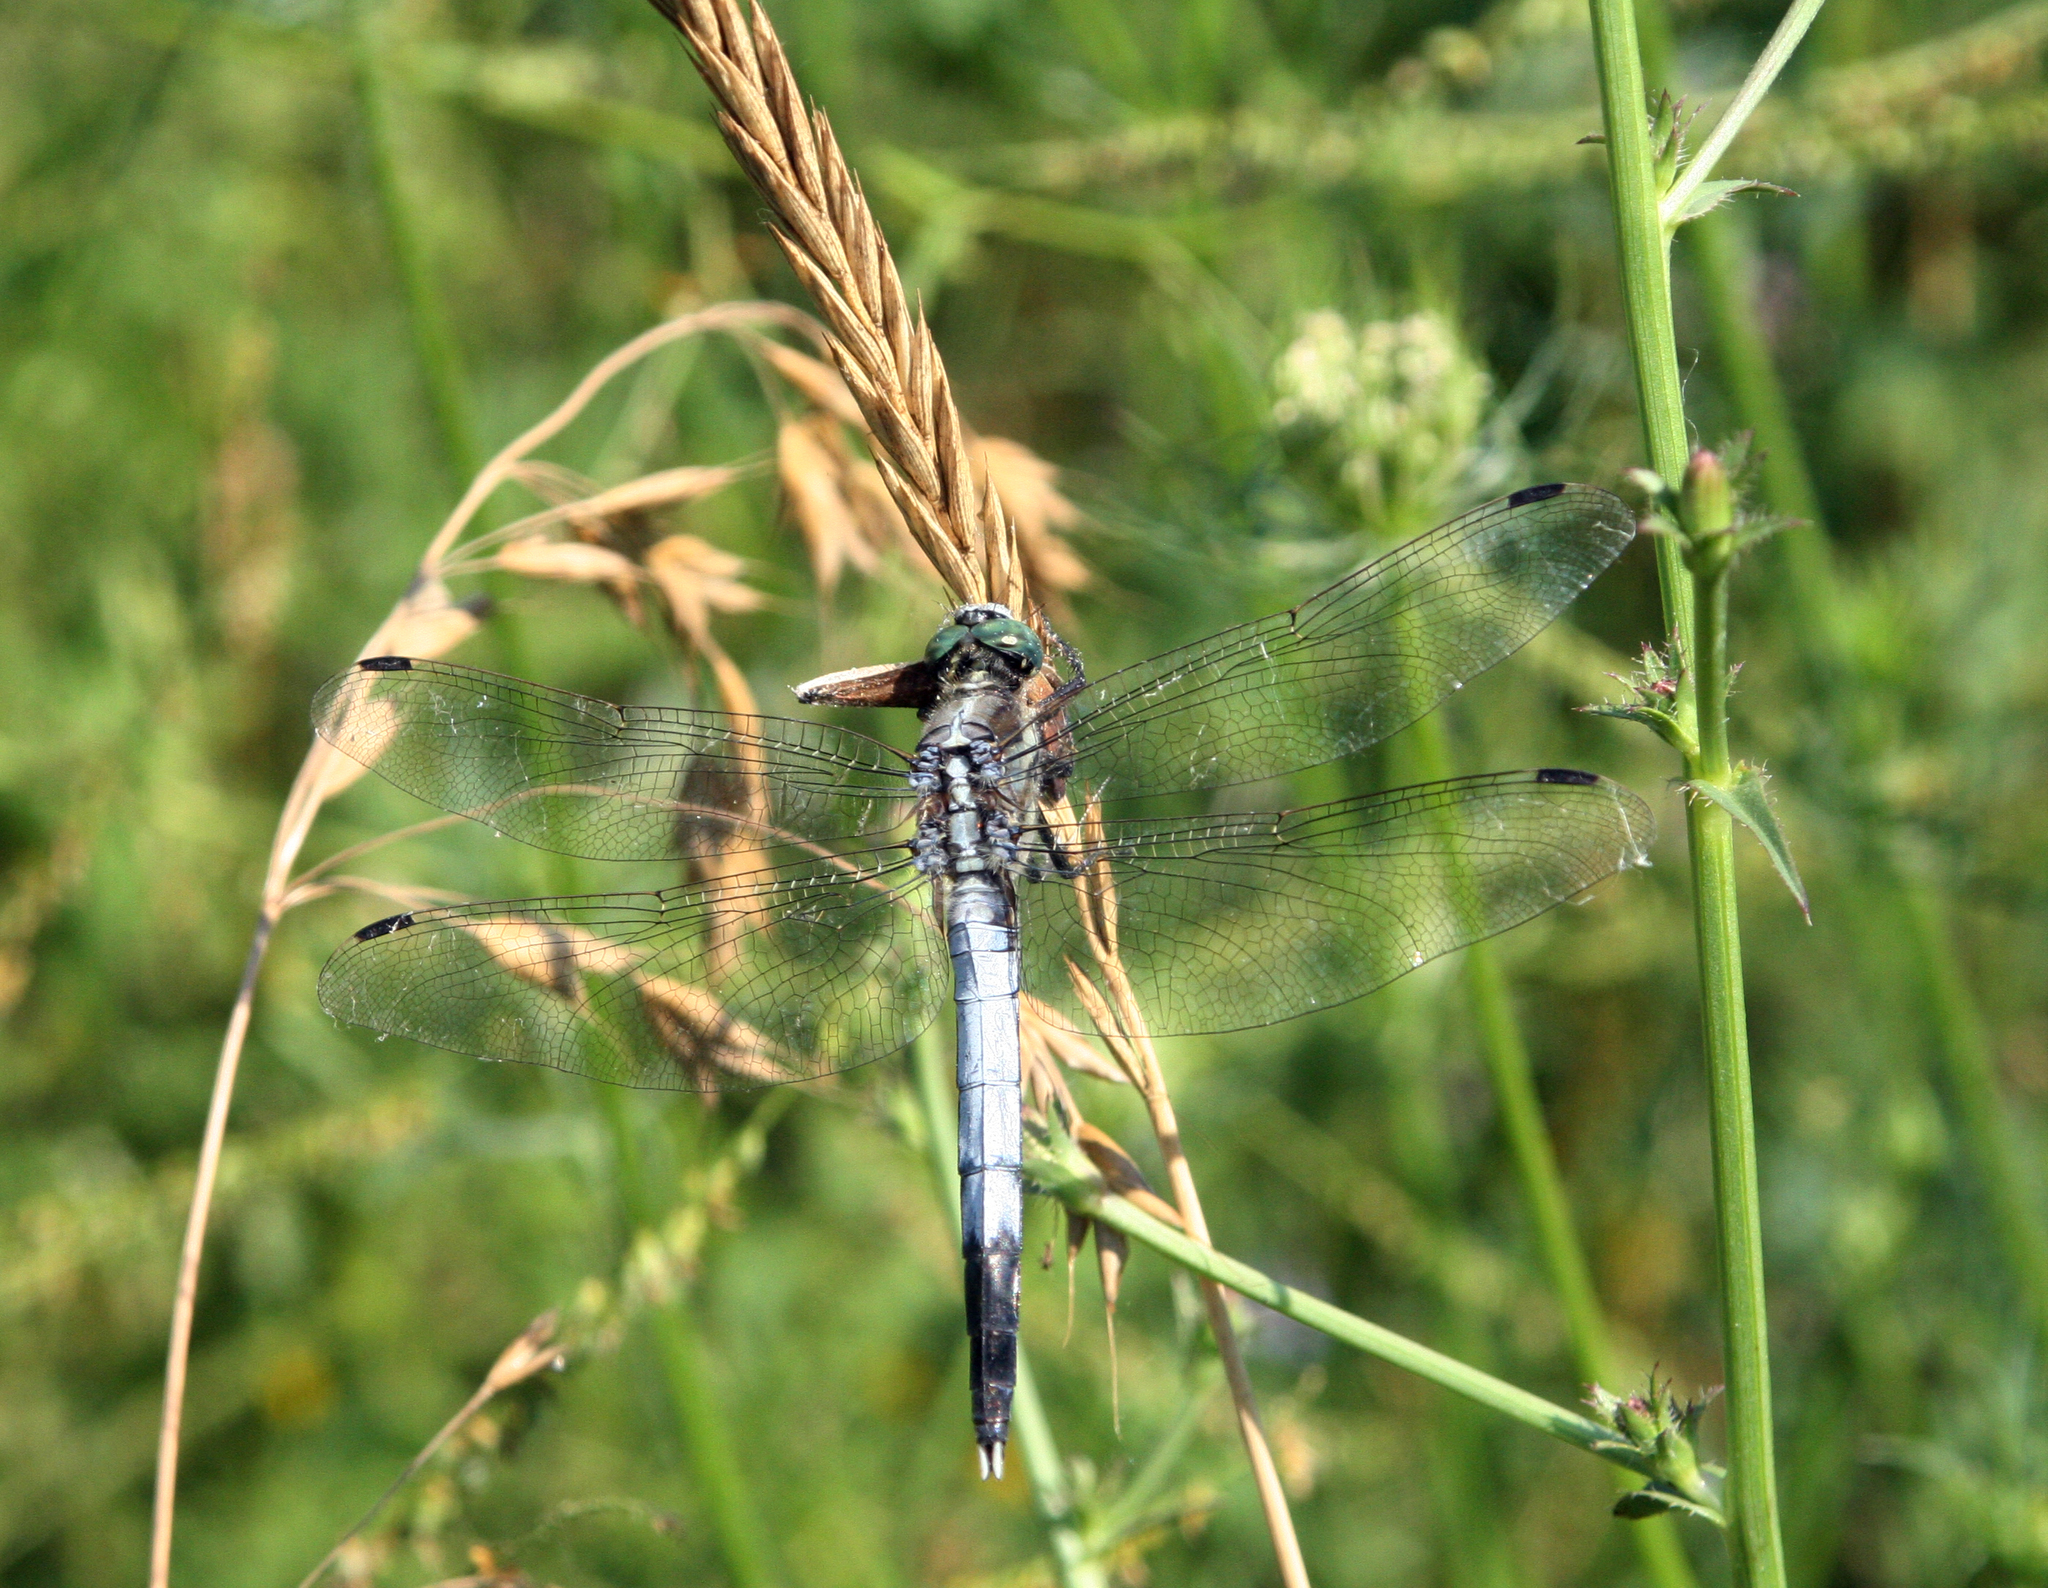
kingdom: Animalia
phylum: Arthropoda
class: Insecta
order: Odonata
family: Libellulidae
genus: Orthetrum
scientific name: Orthetrum albistylum
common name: White-tailed skimmer
